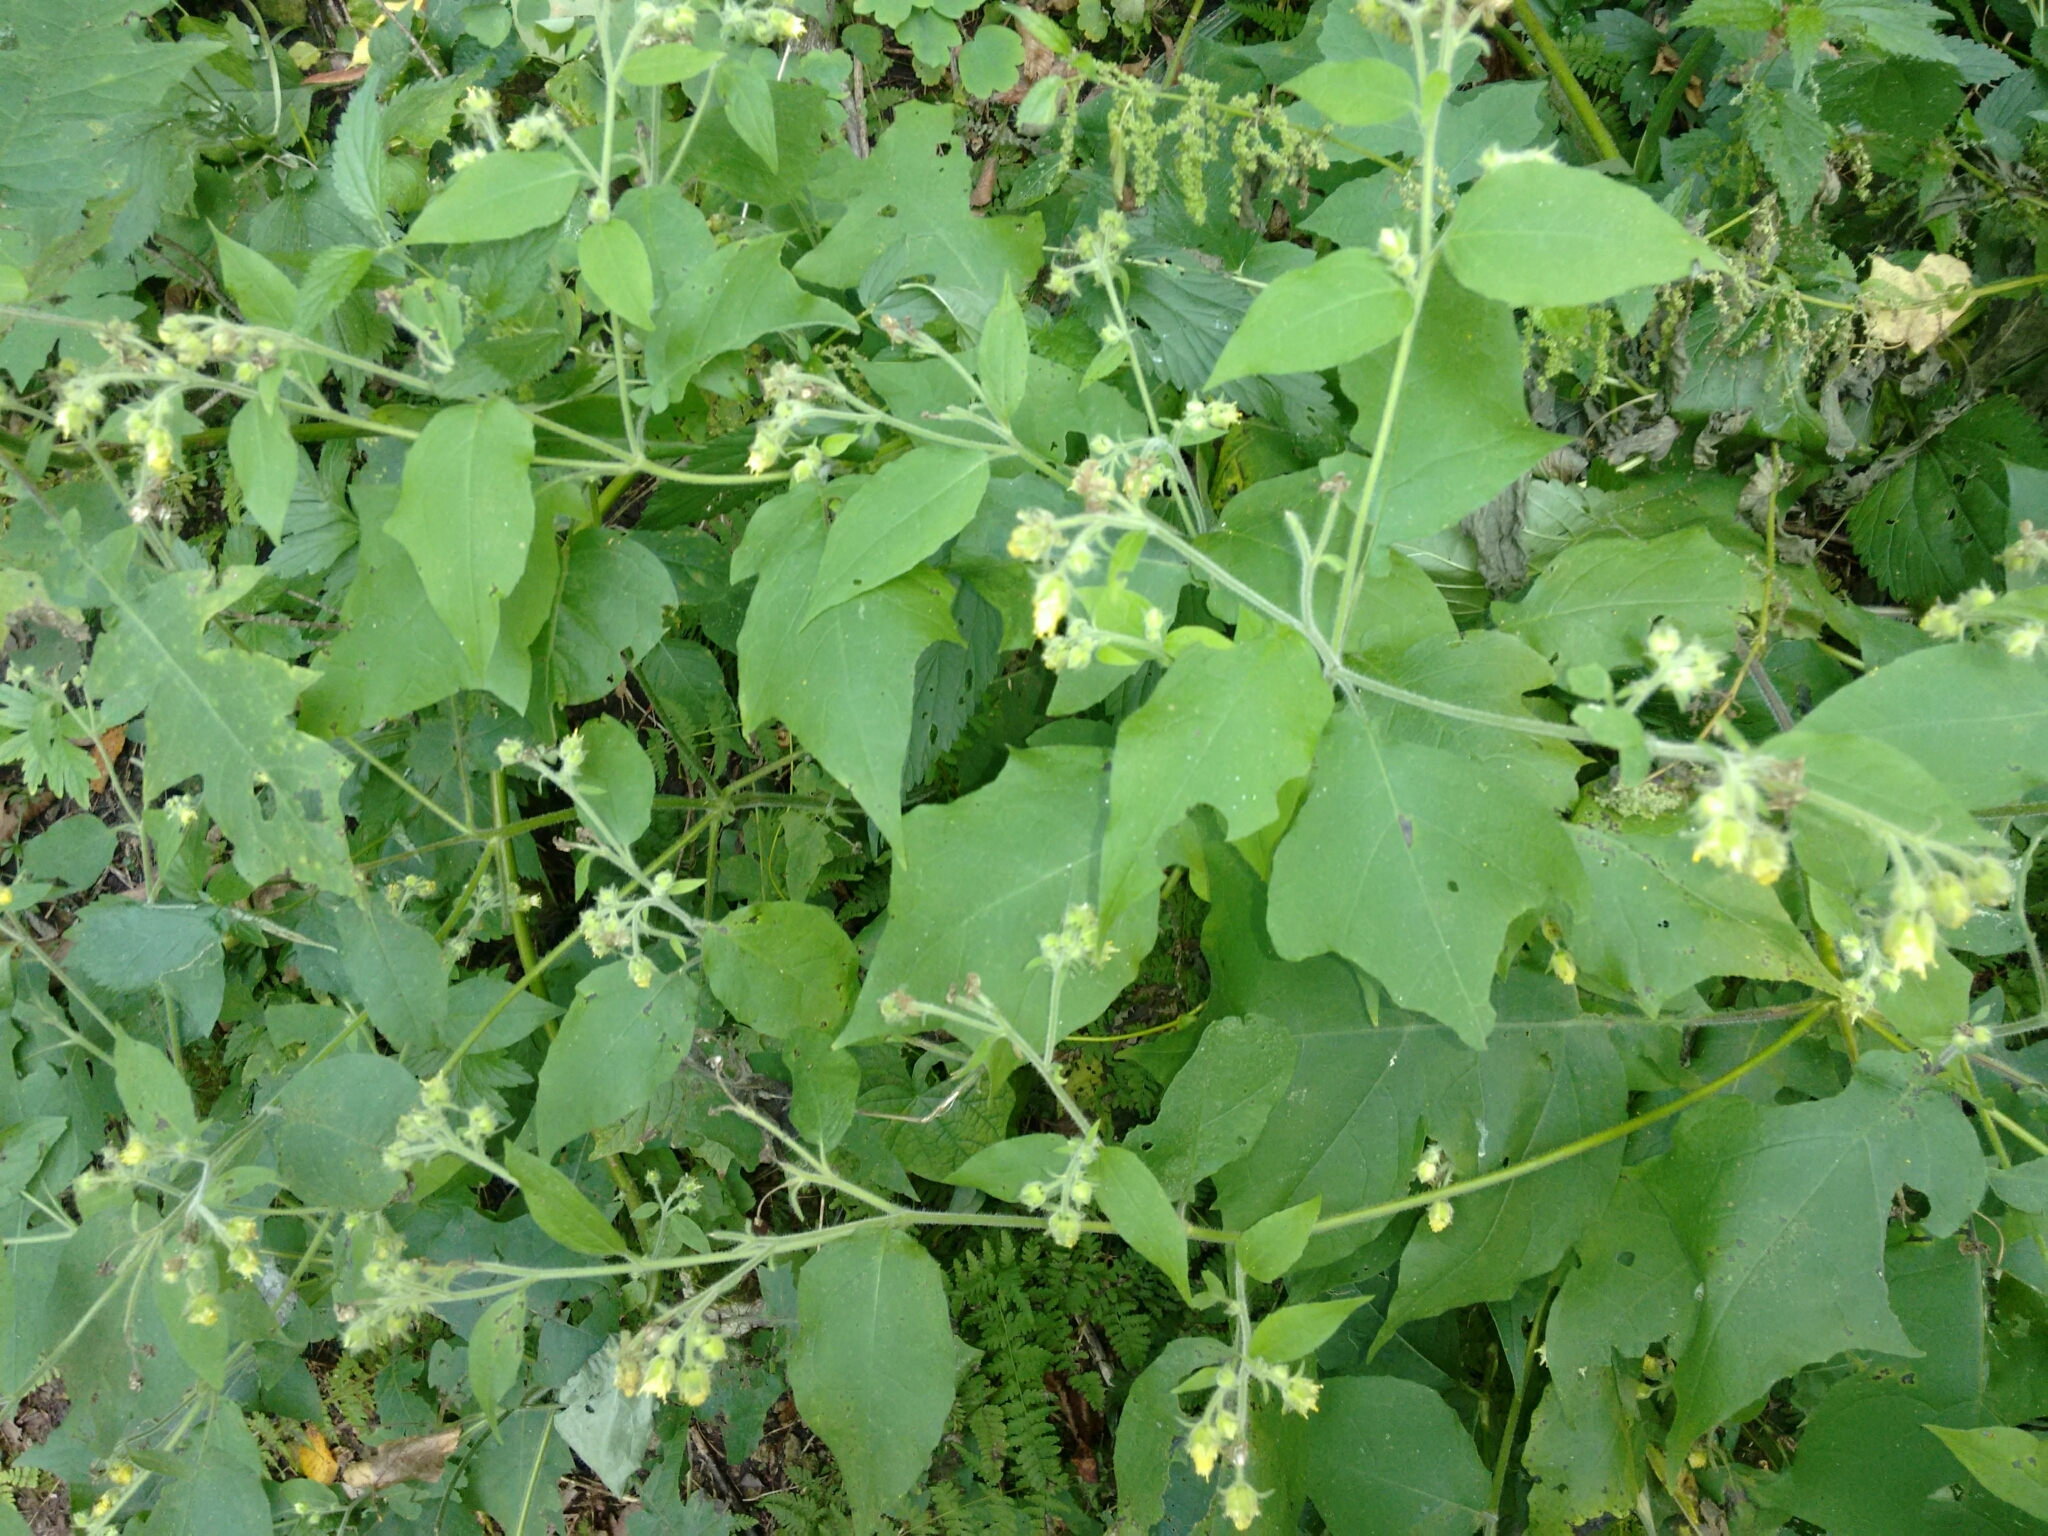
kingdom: Plantae
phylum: Tracheophyta
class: Magnoliopsida
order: Asterales
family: Asteraceae
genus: Polymnia
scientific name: Polymnia canadensis
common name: Pale-flowered leafcup
